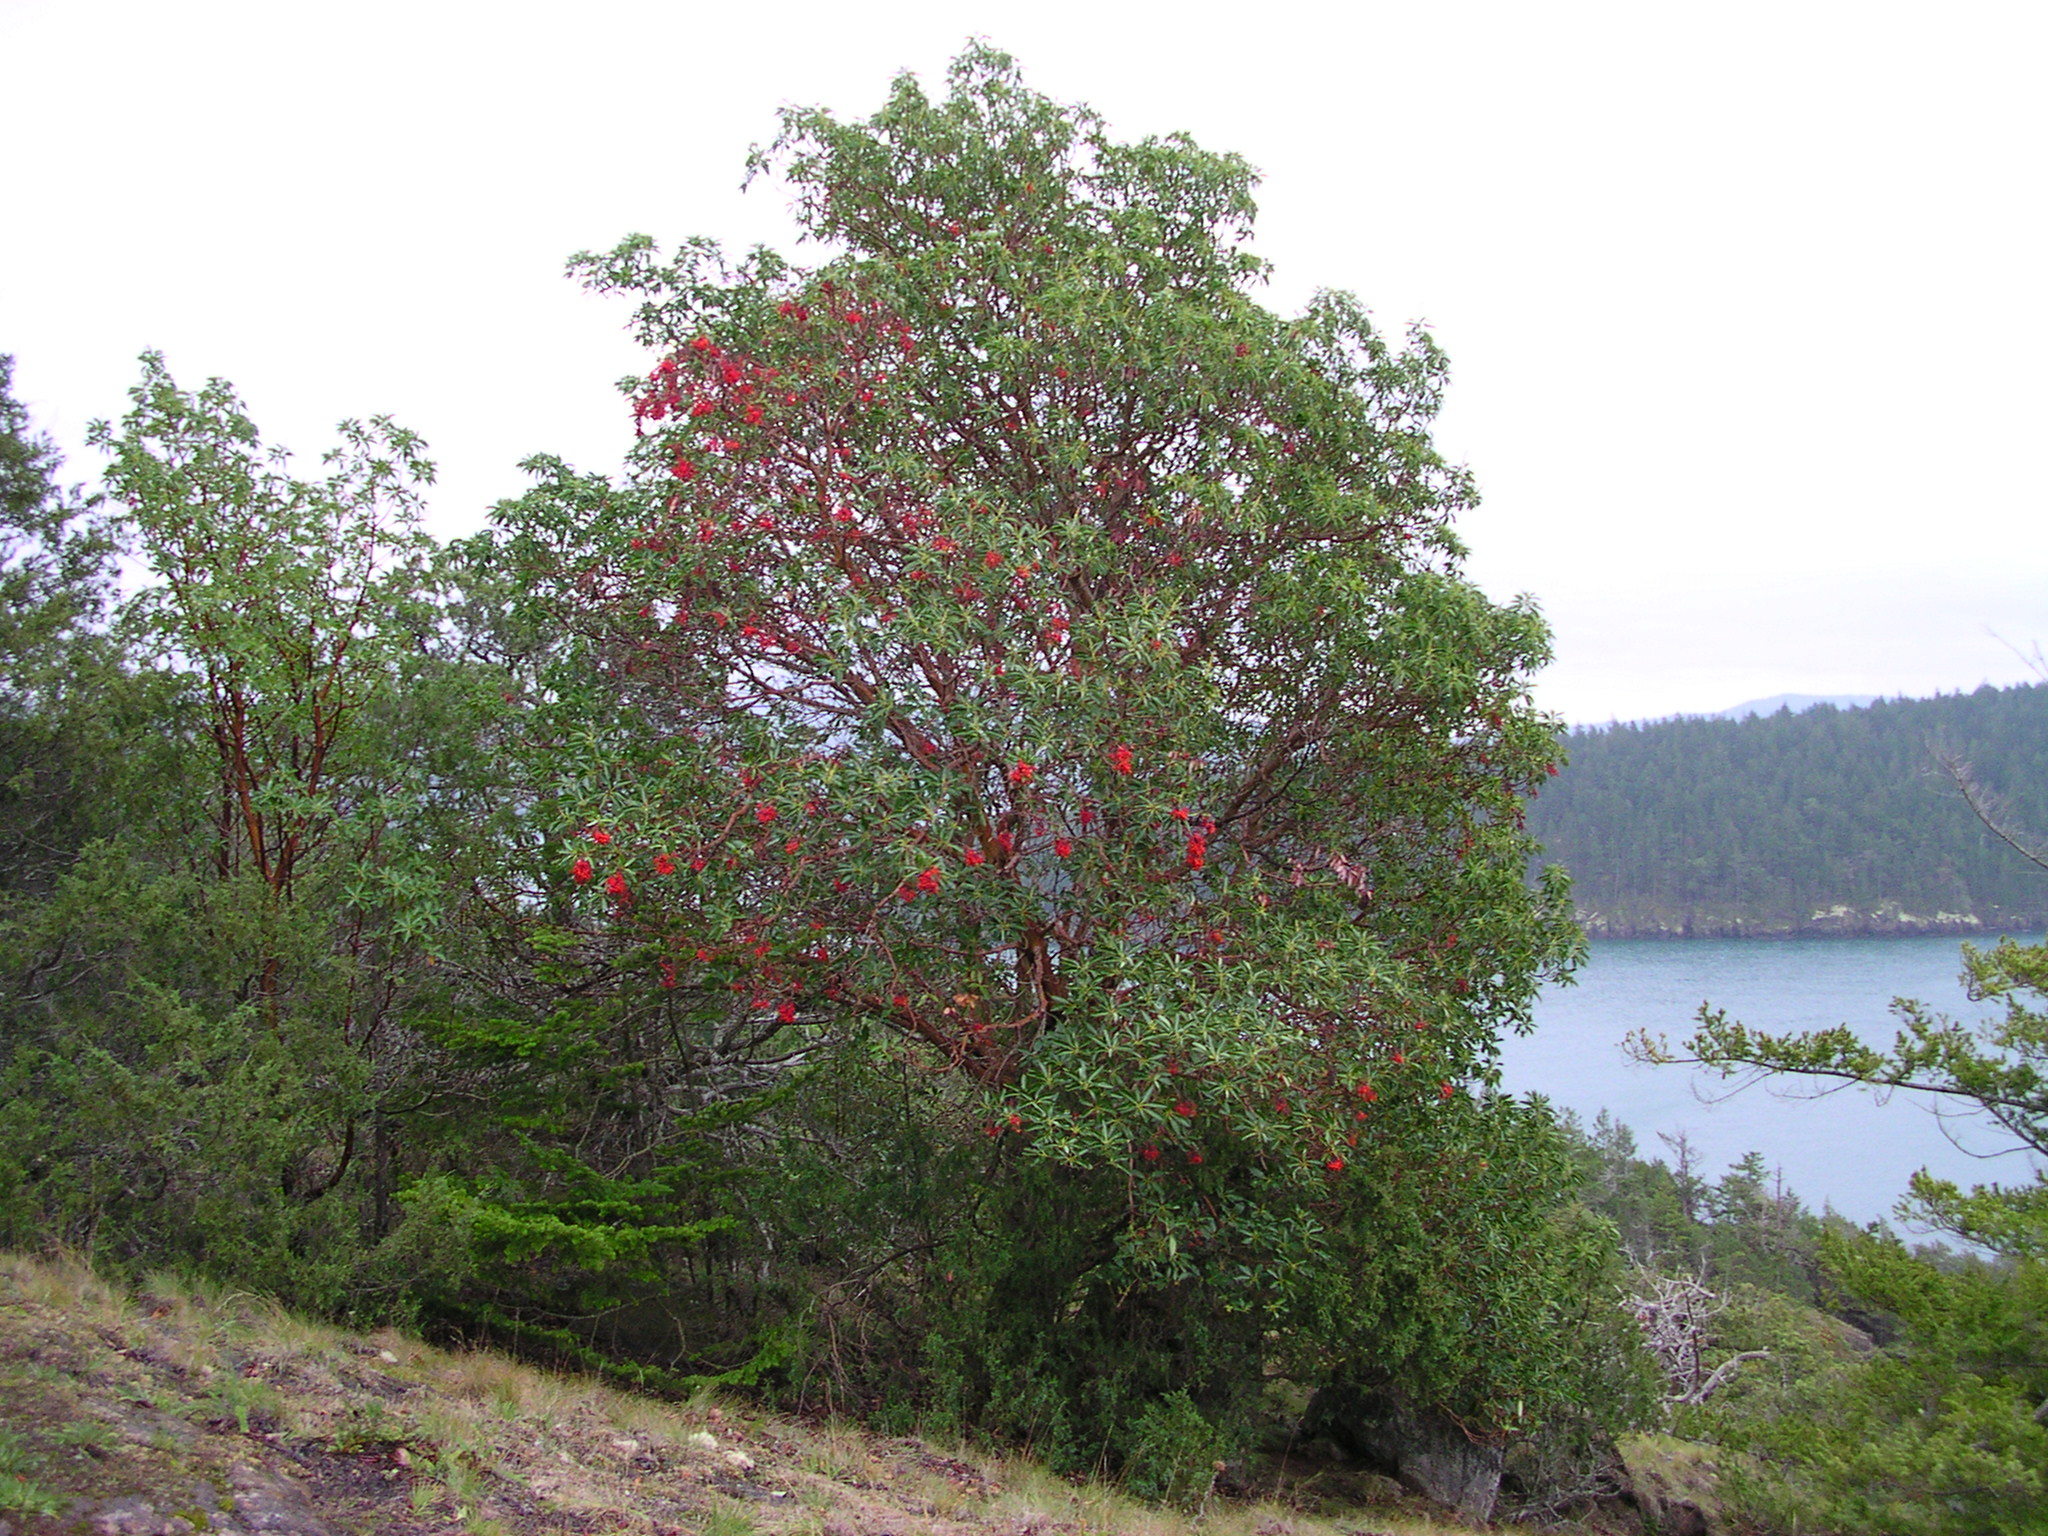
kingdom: Plantae
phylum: Tracheophyta
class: Magnoliopsida
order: Ericales
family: Ericaceae
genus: Arbutus
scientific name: Arbutus menziesii
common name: Pacific madrone
